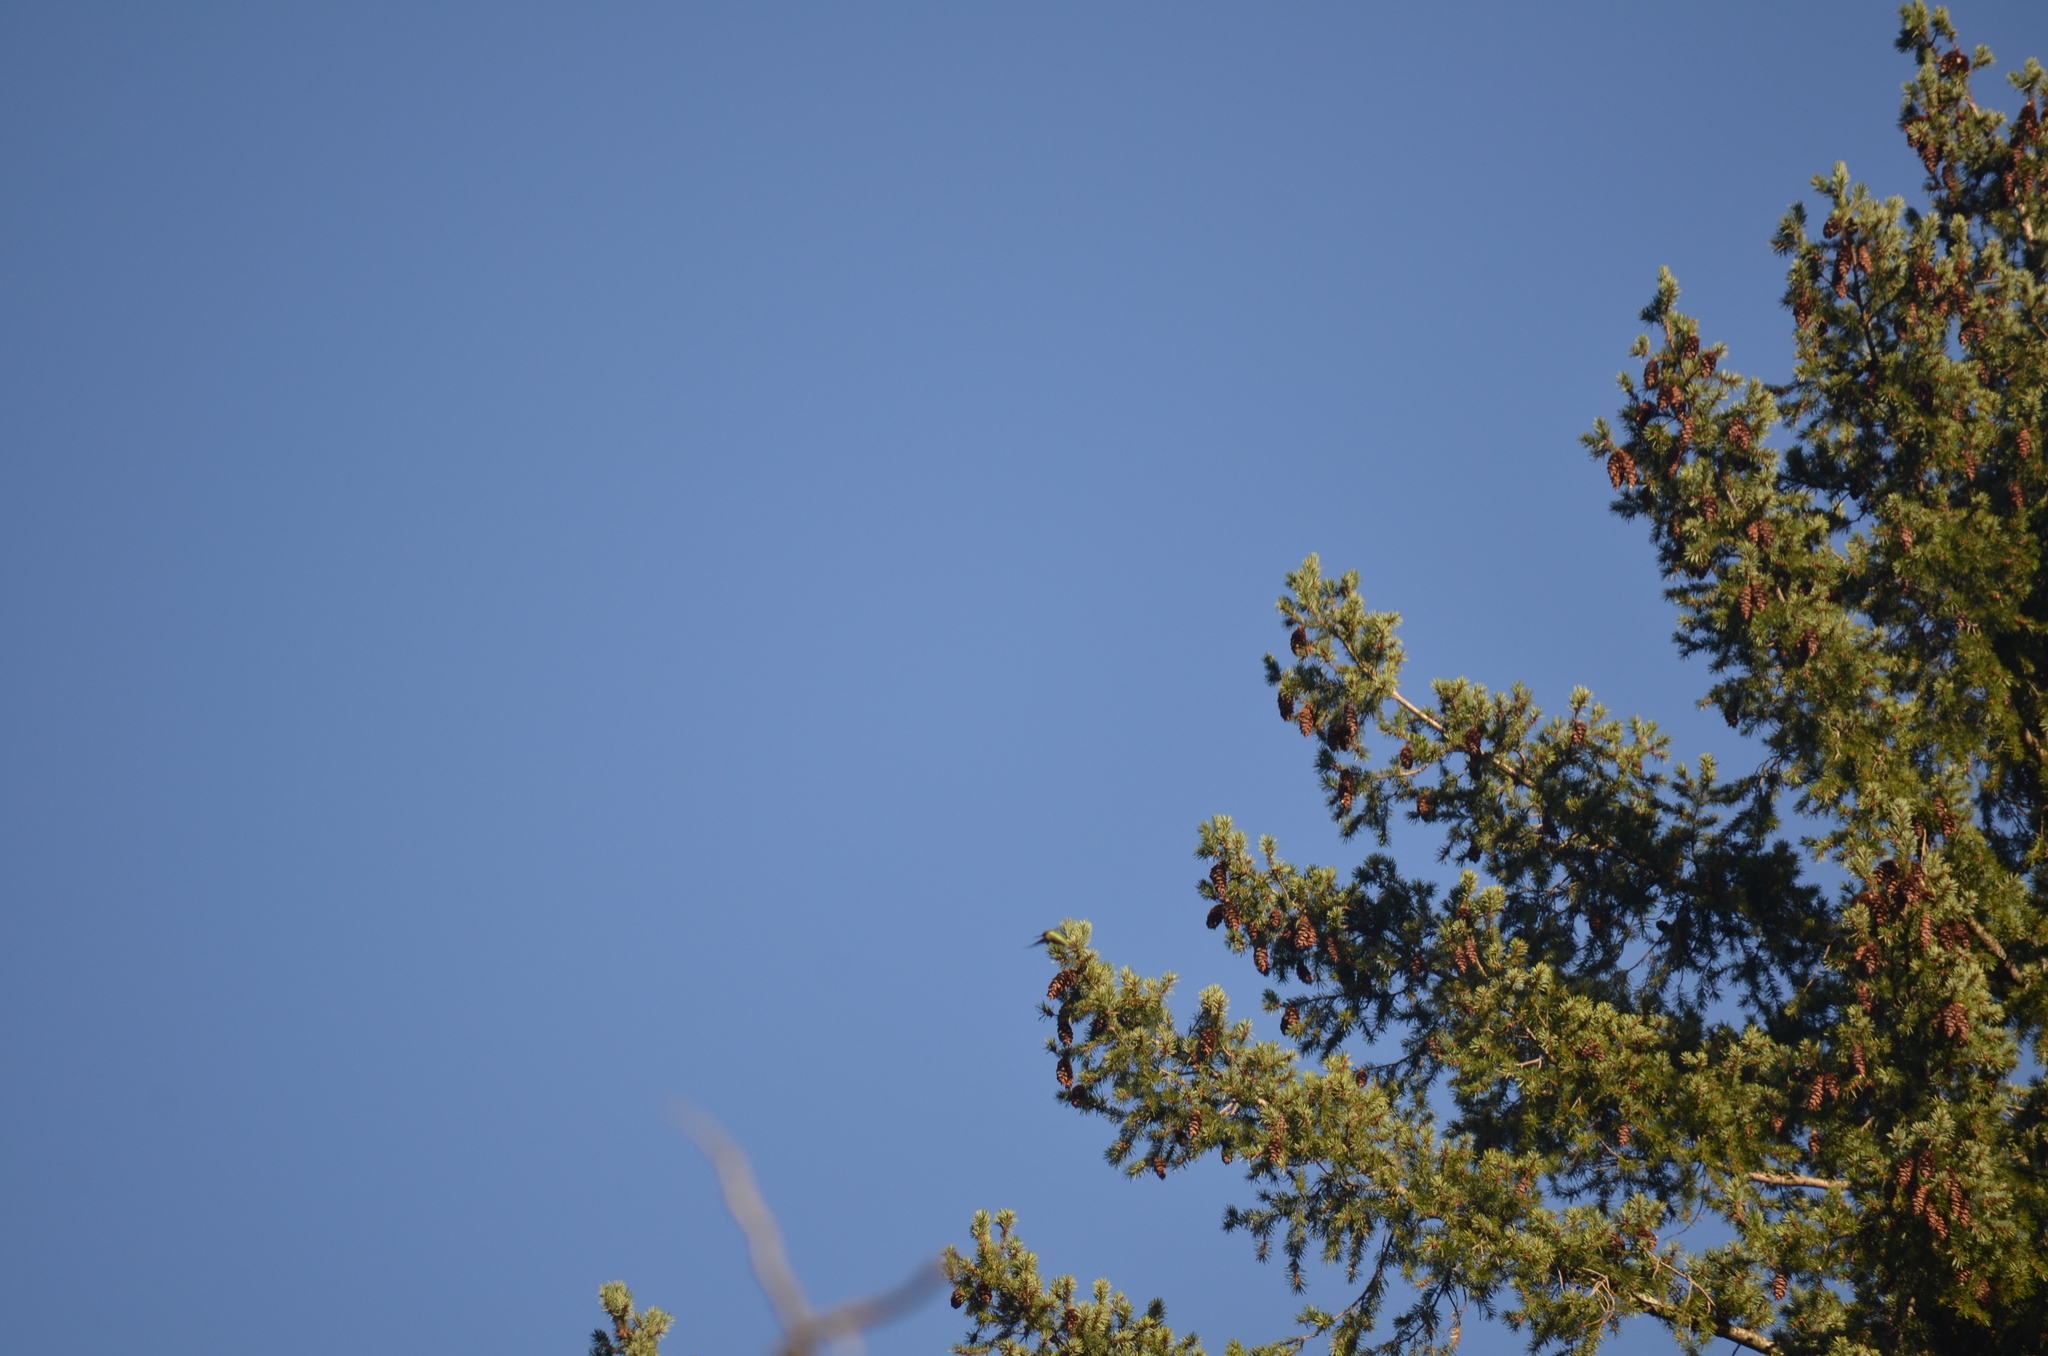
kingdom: Animalia
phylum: Chordata
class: Aves
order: Apodiformes
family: Trochilidae
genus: Calypte
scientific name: Calypte anna
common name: Anna's hummingbird
